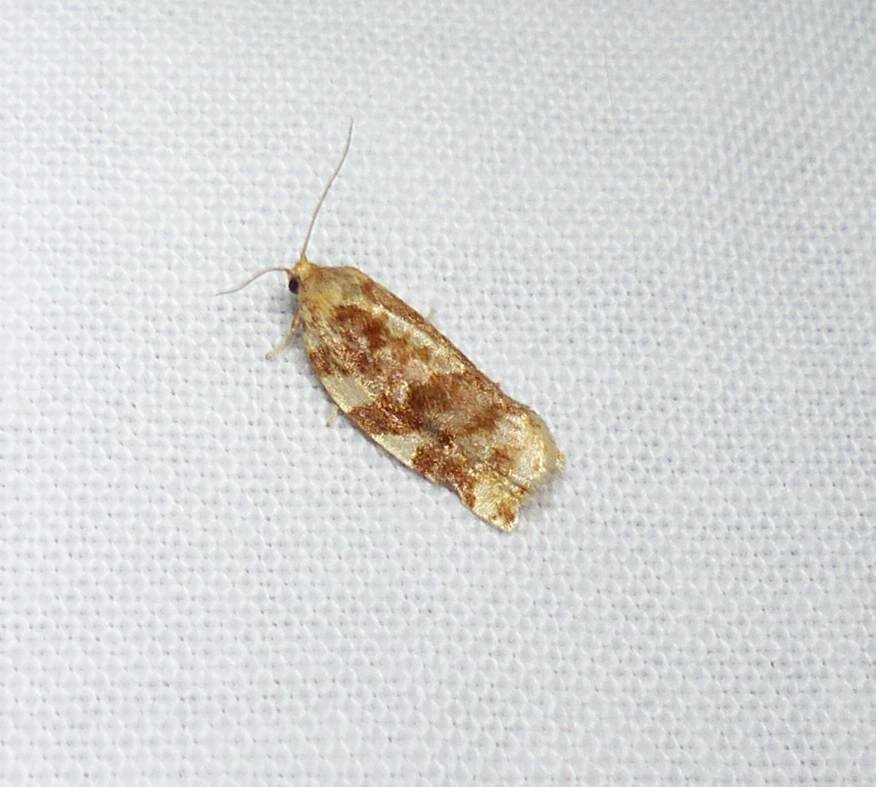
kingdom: Animalia
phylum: Arthropoda
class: Insecta
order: Lepidoptera
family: Tortricidae
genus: Archips
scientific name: Archips argyrospila
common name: Fruit-tree leafroller moth
